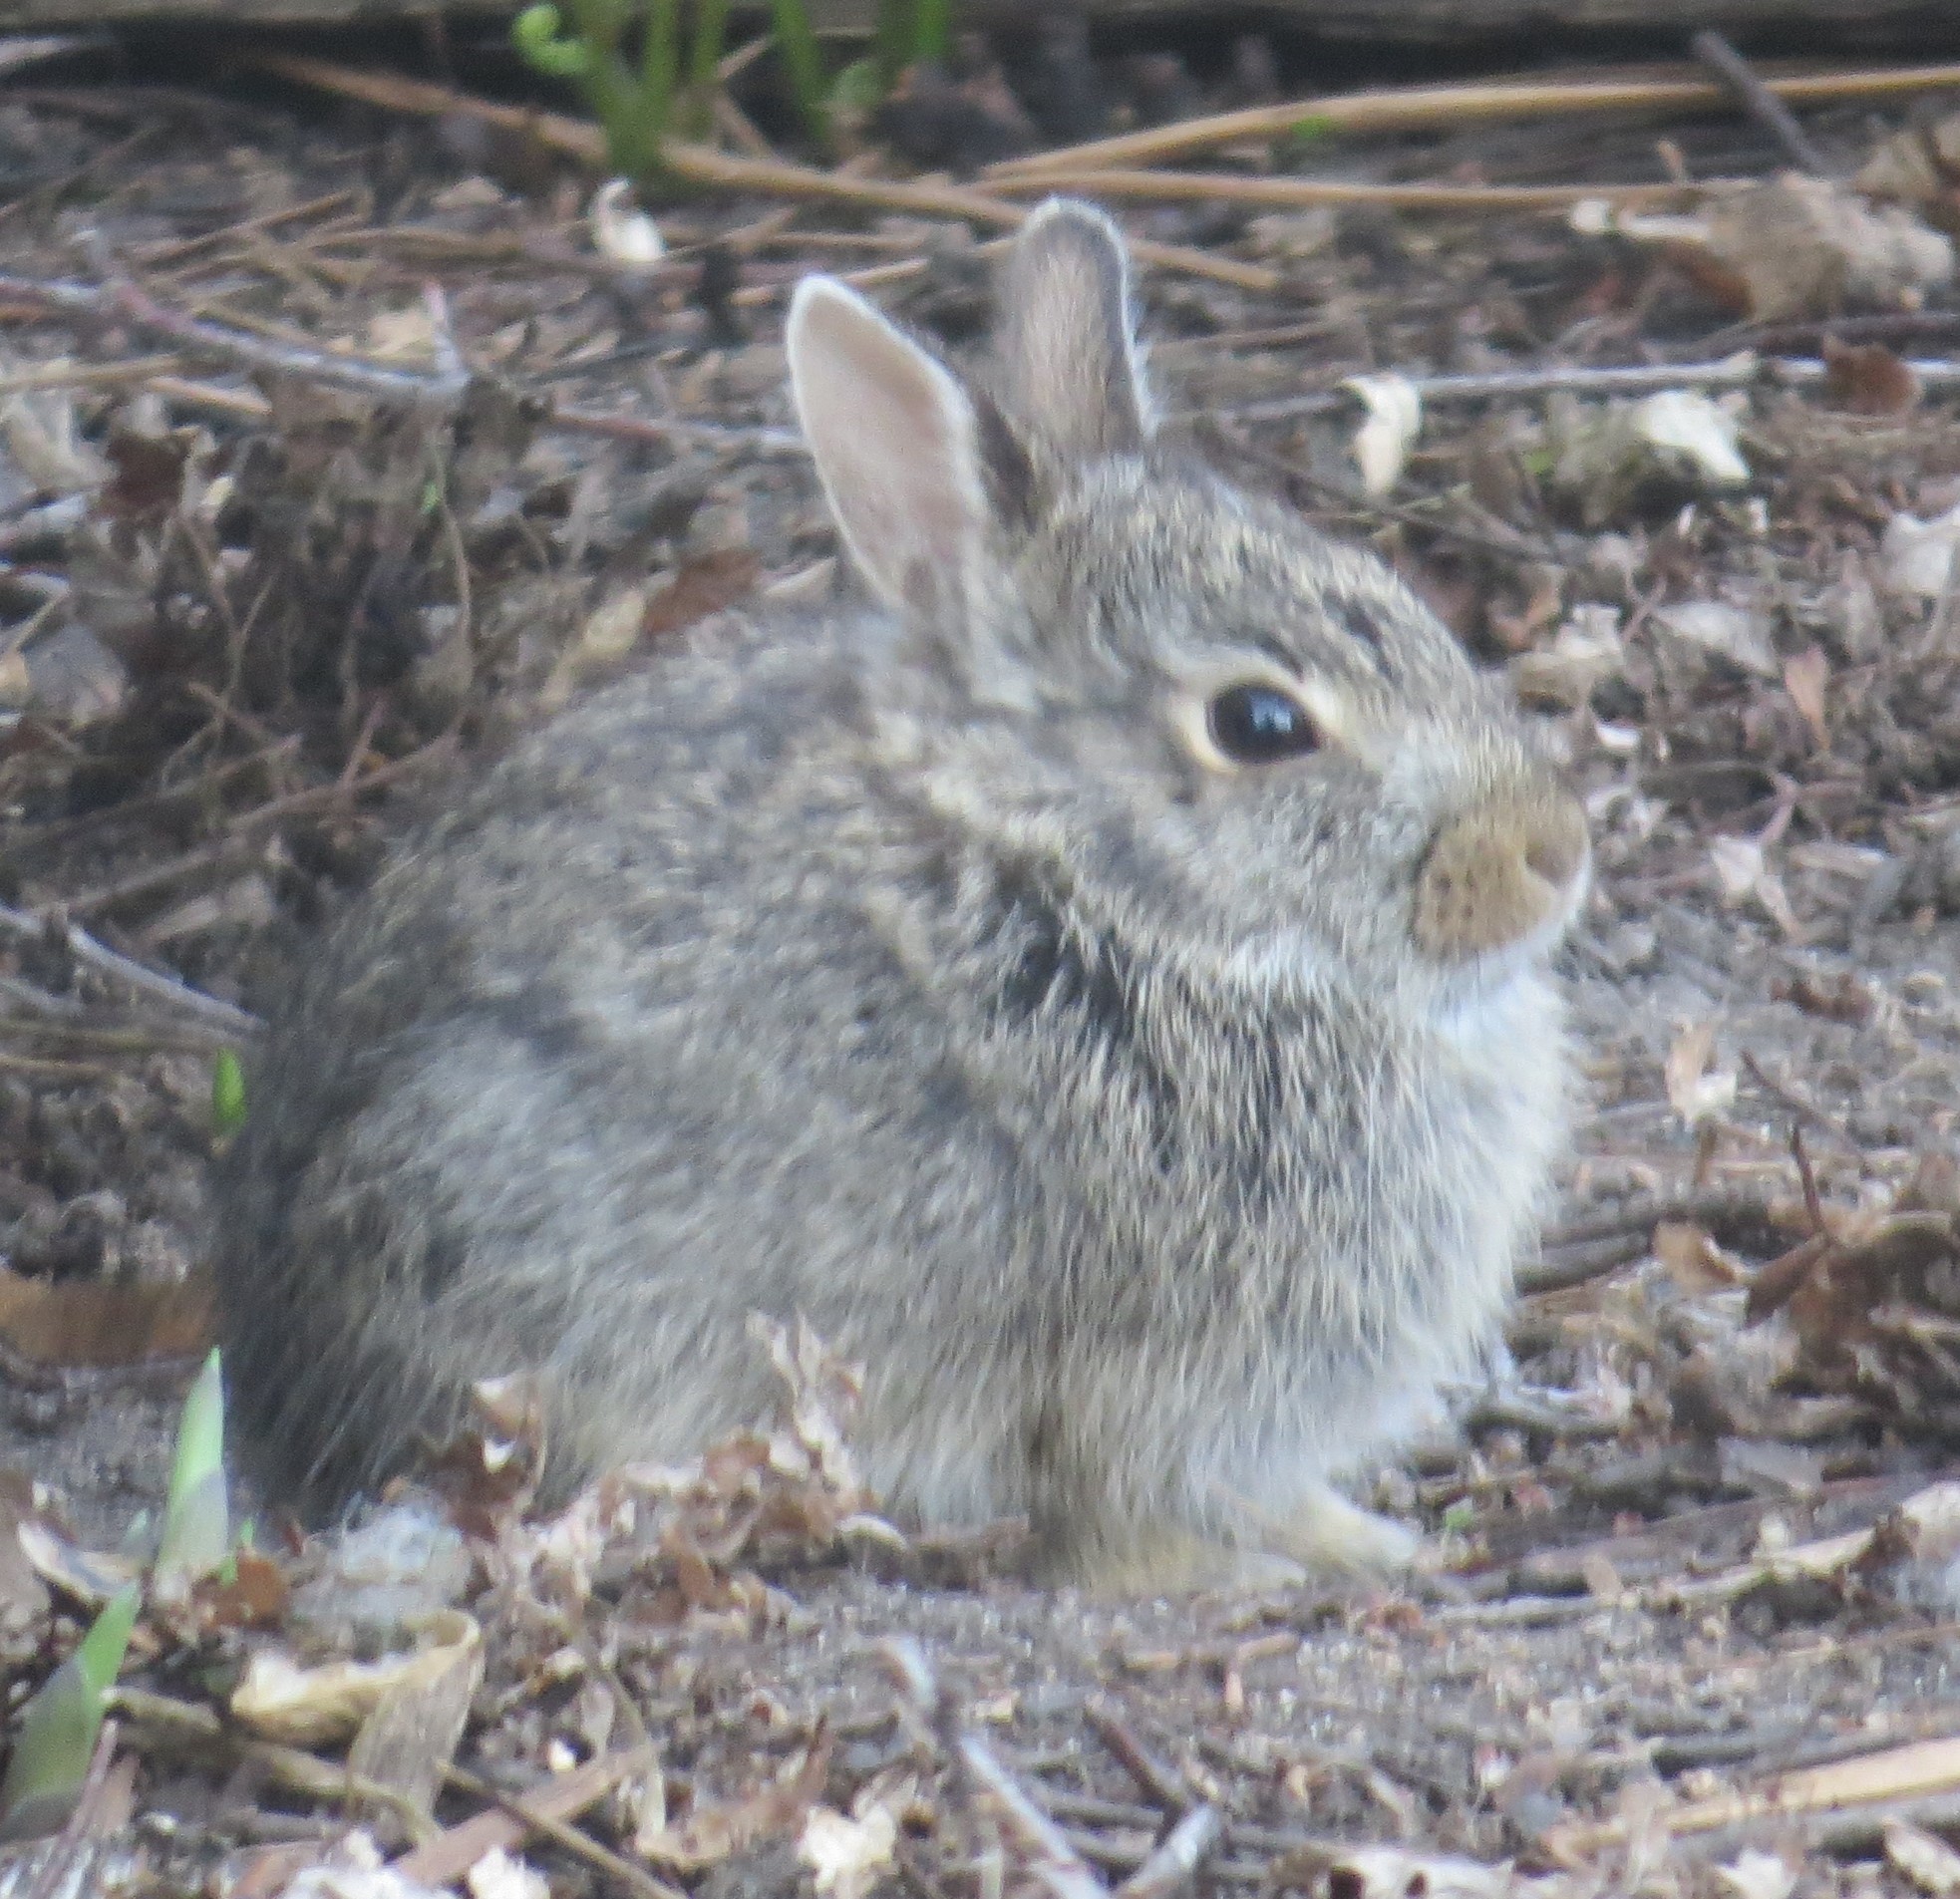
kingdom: Animalia
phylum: Chordata
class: Mammalia
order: Lagomorpha
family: Leporidae
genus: Sylvilagus
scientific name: Sylvilagus floridanus
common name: Eastern cottontail
